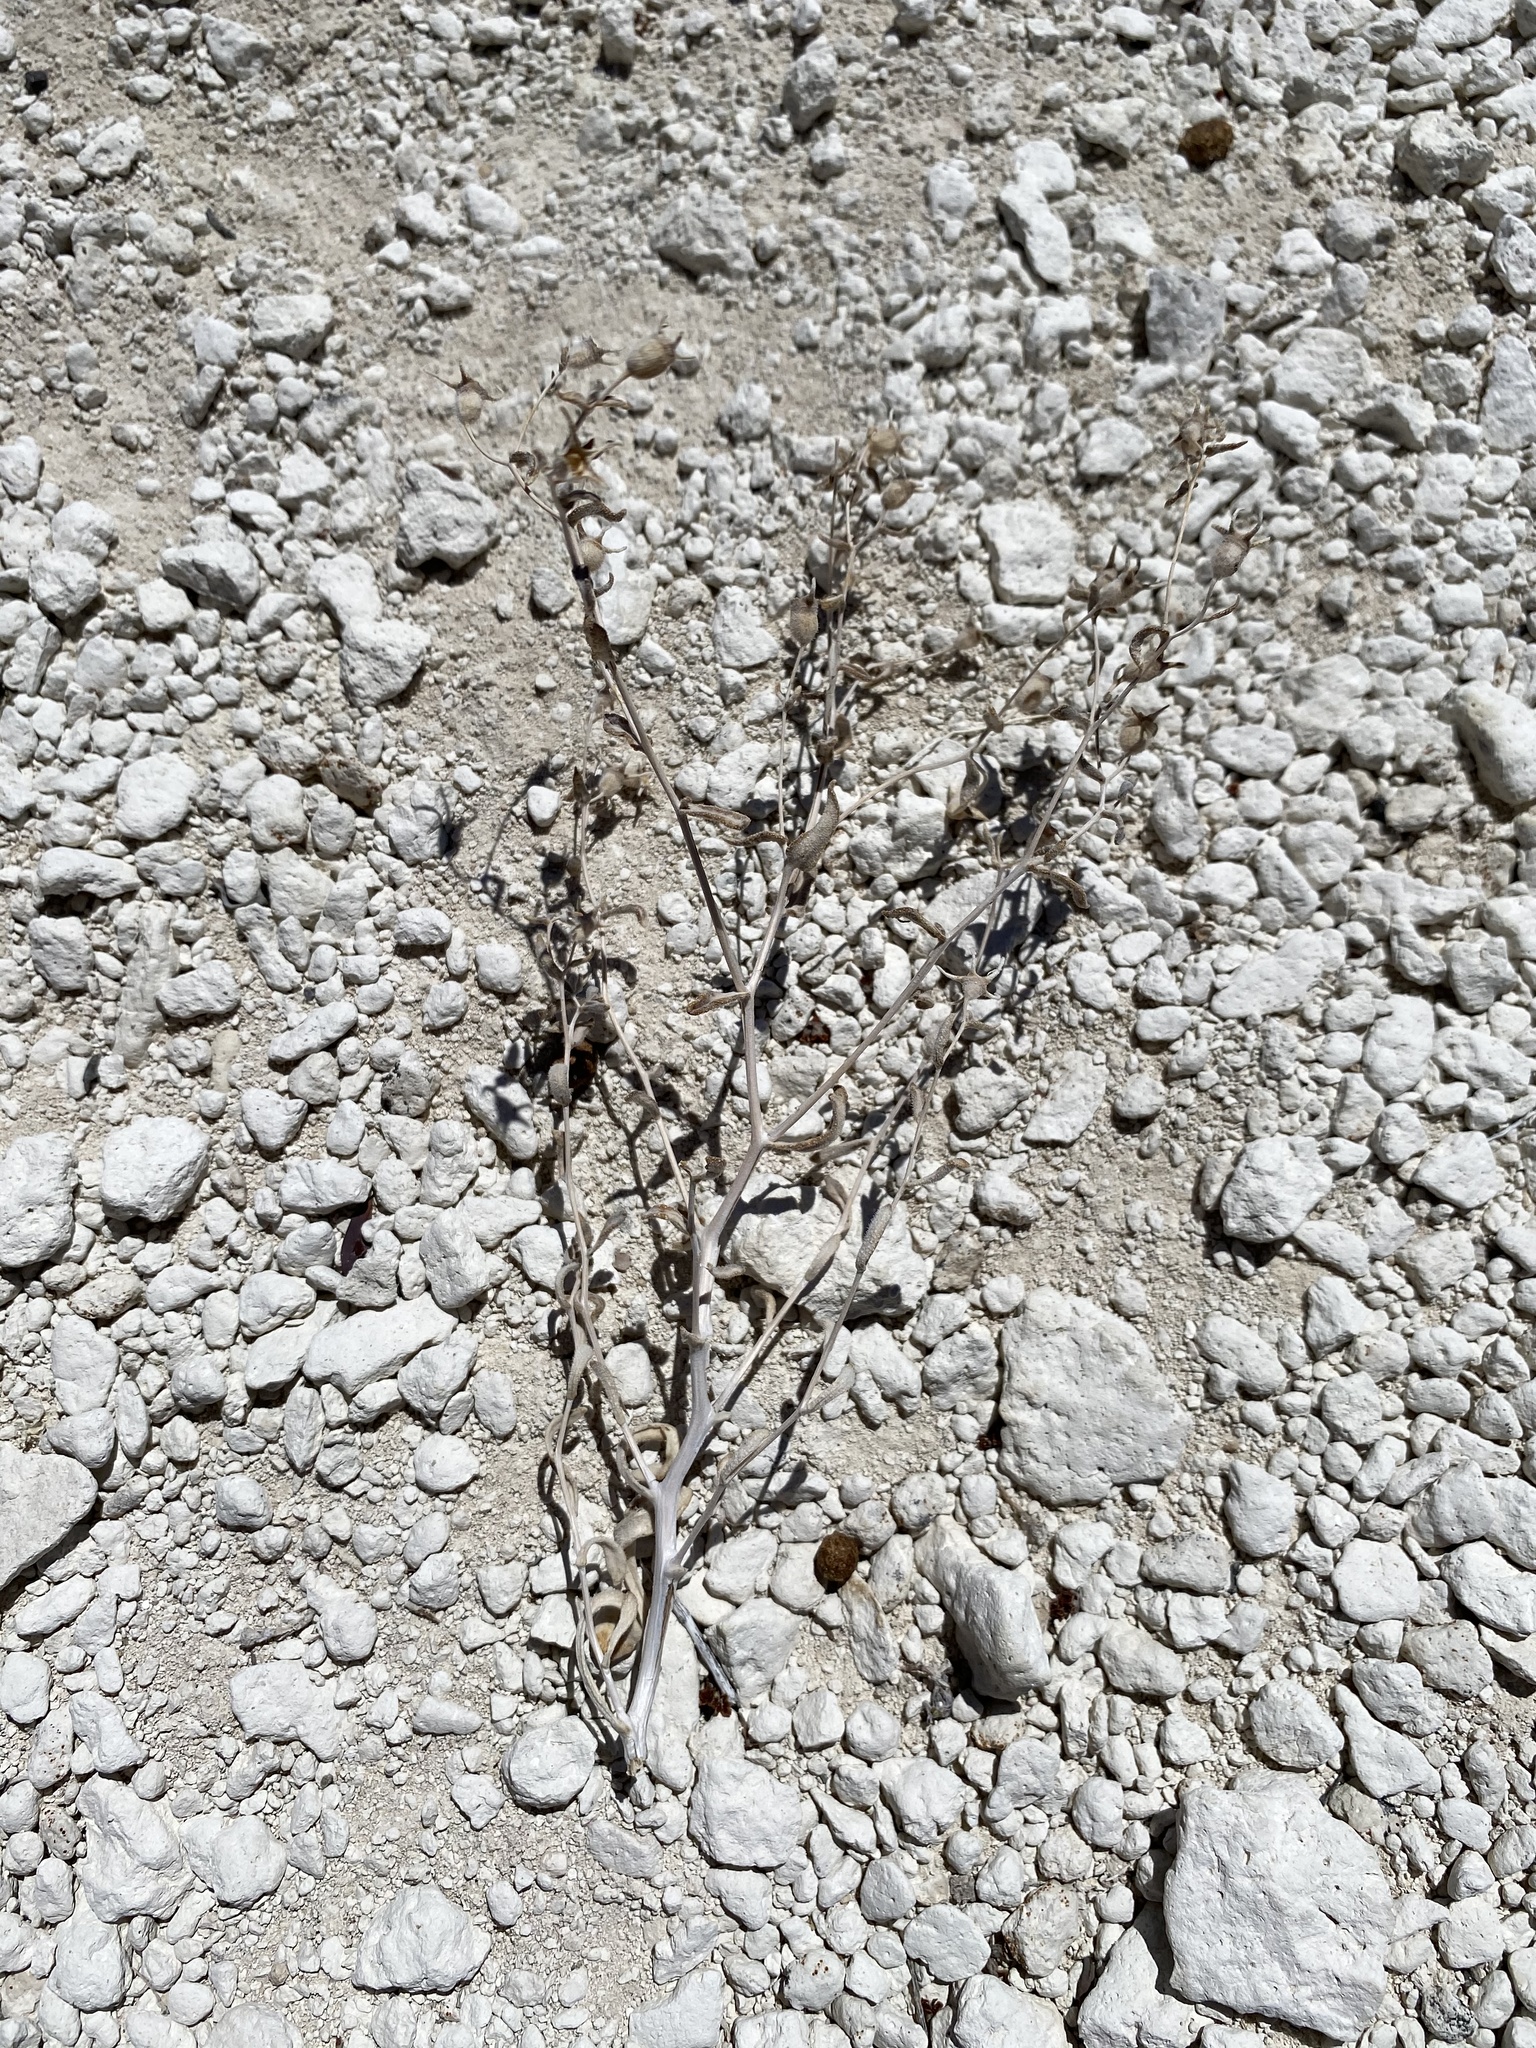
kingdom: Plantae
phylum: Tracheophyta
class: Magnoliopsida
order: Cornales
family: Loasaceae
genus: Mentzelia
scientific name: Mentzelia tiehmii
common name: Tiehm's blazing star
